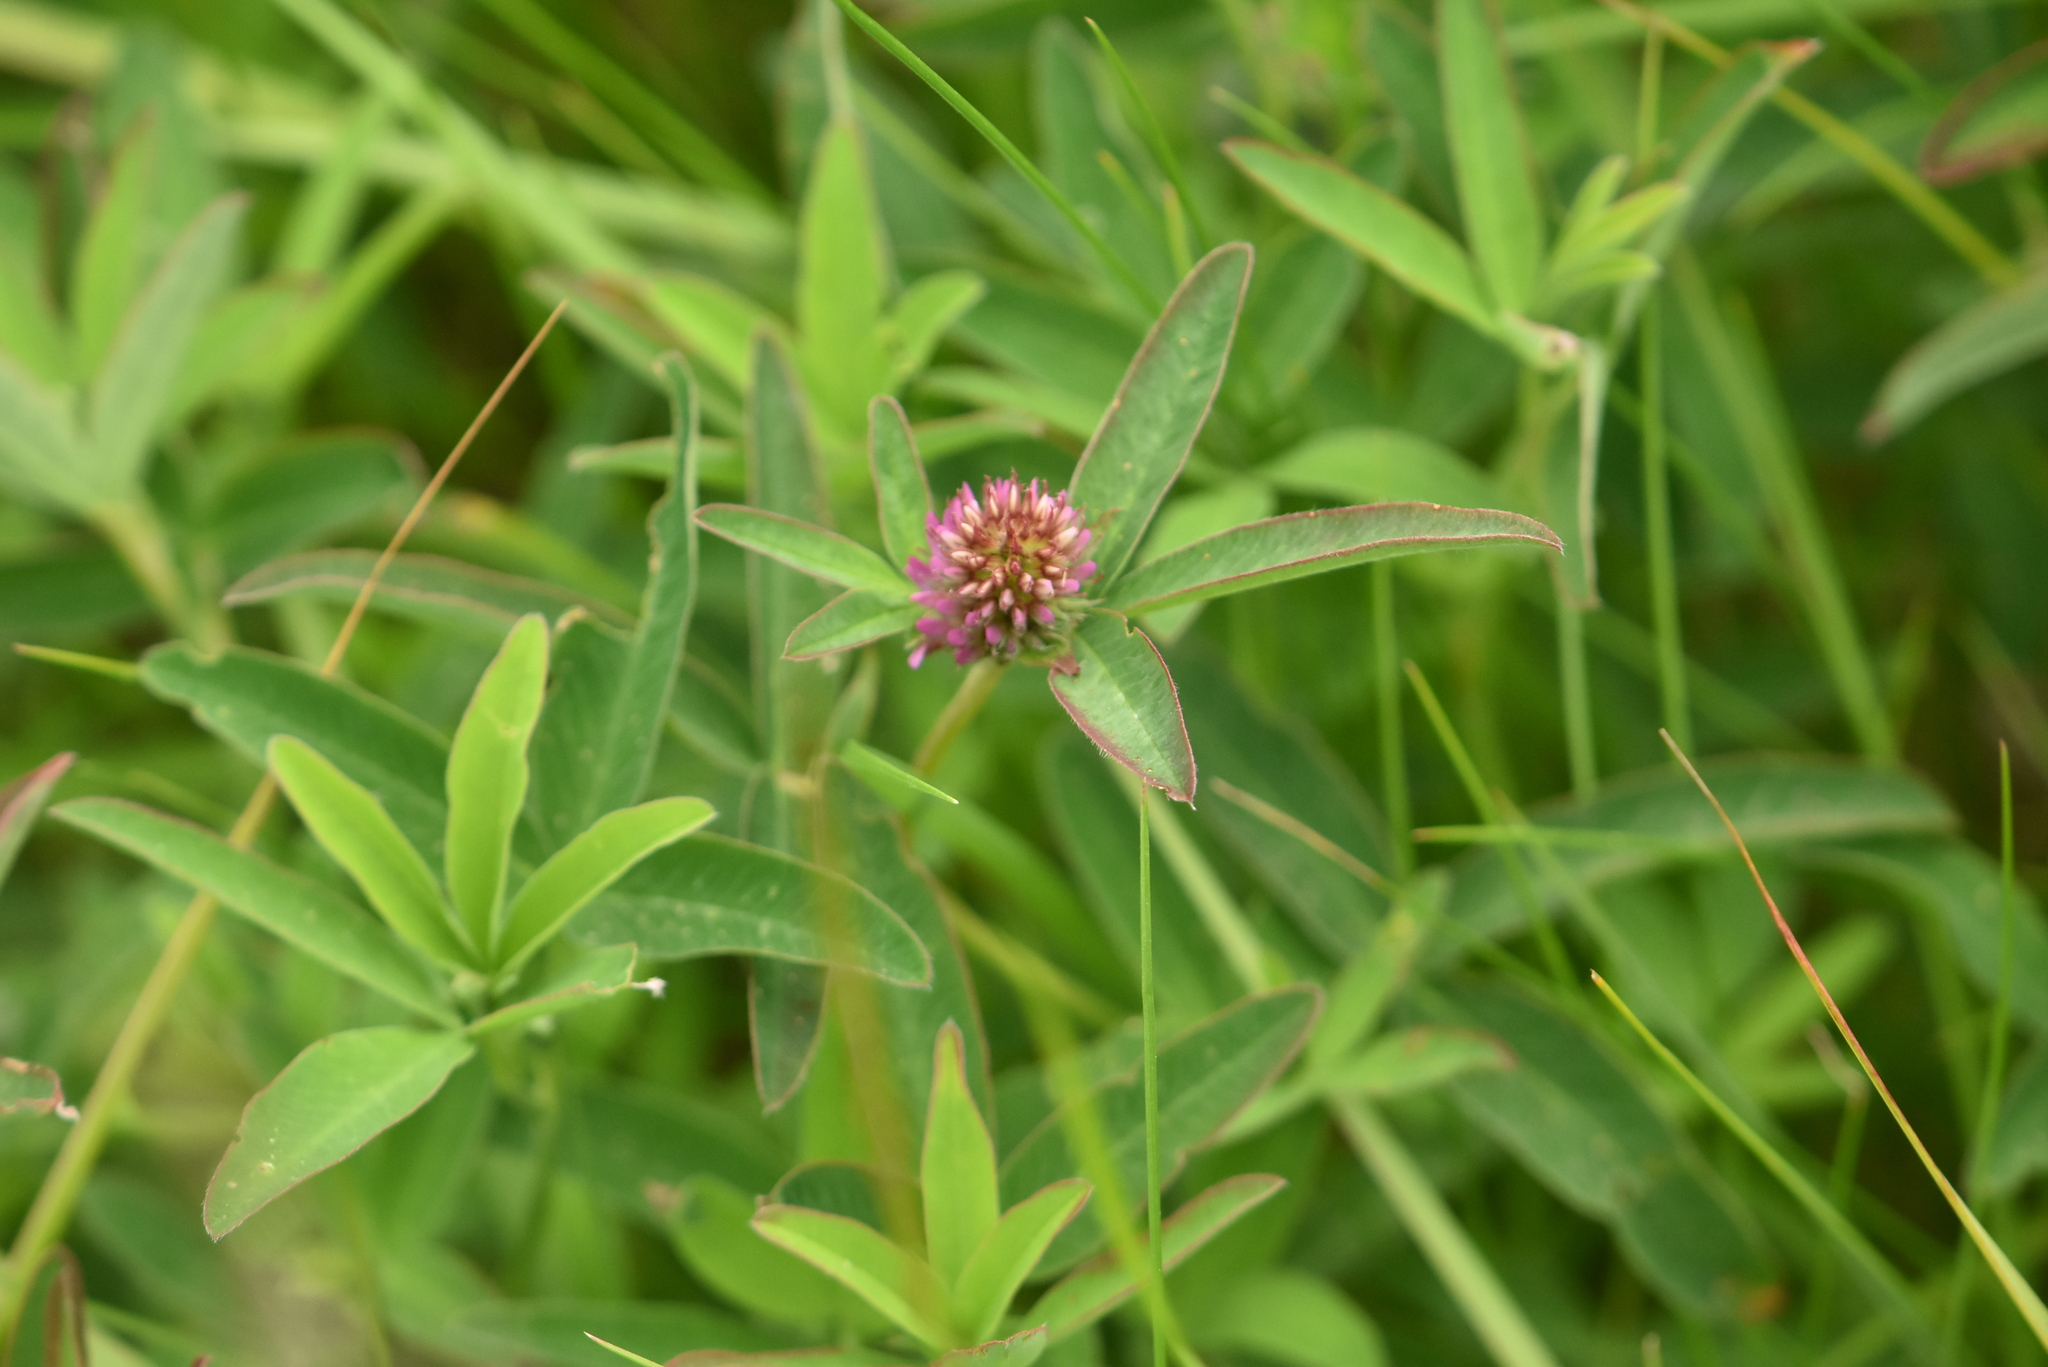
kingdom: Plantae
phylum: Tracheophyta
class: Magnoliopsida
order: Fabales
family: Fabaceae
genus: Trifolium
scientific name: Trifolium medium
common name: Zigzag clover
